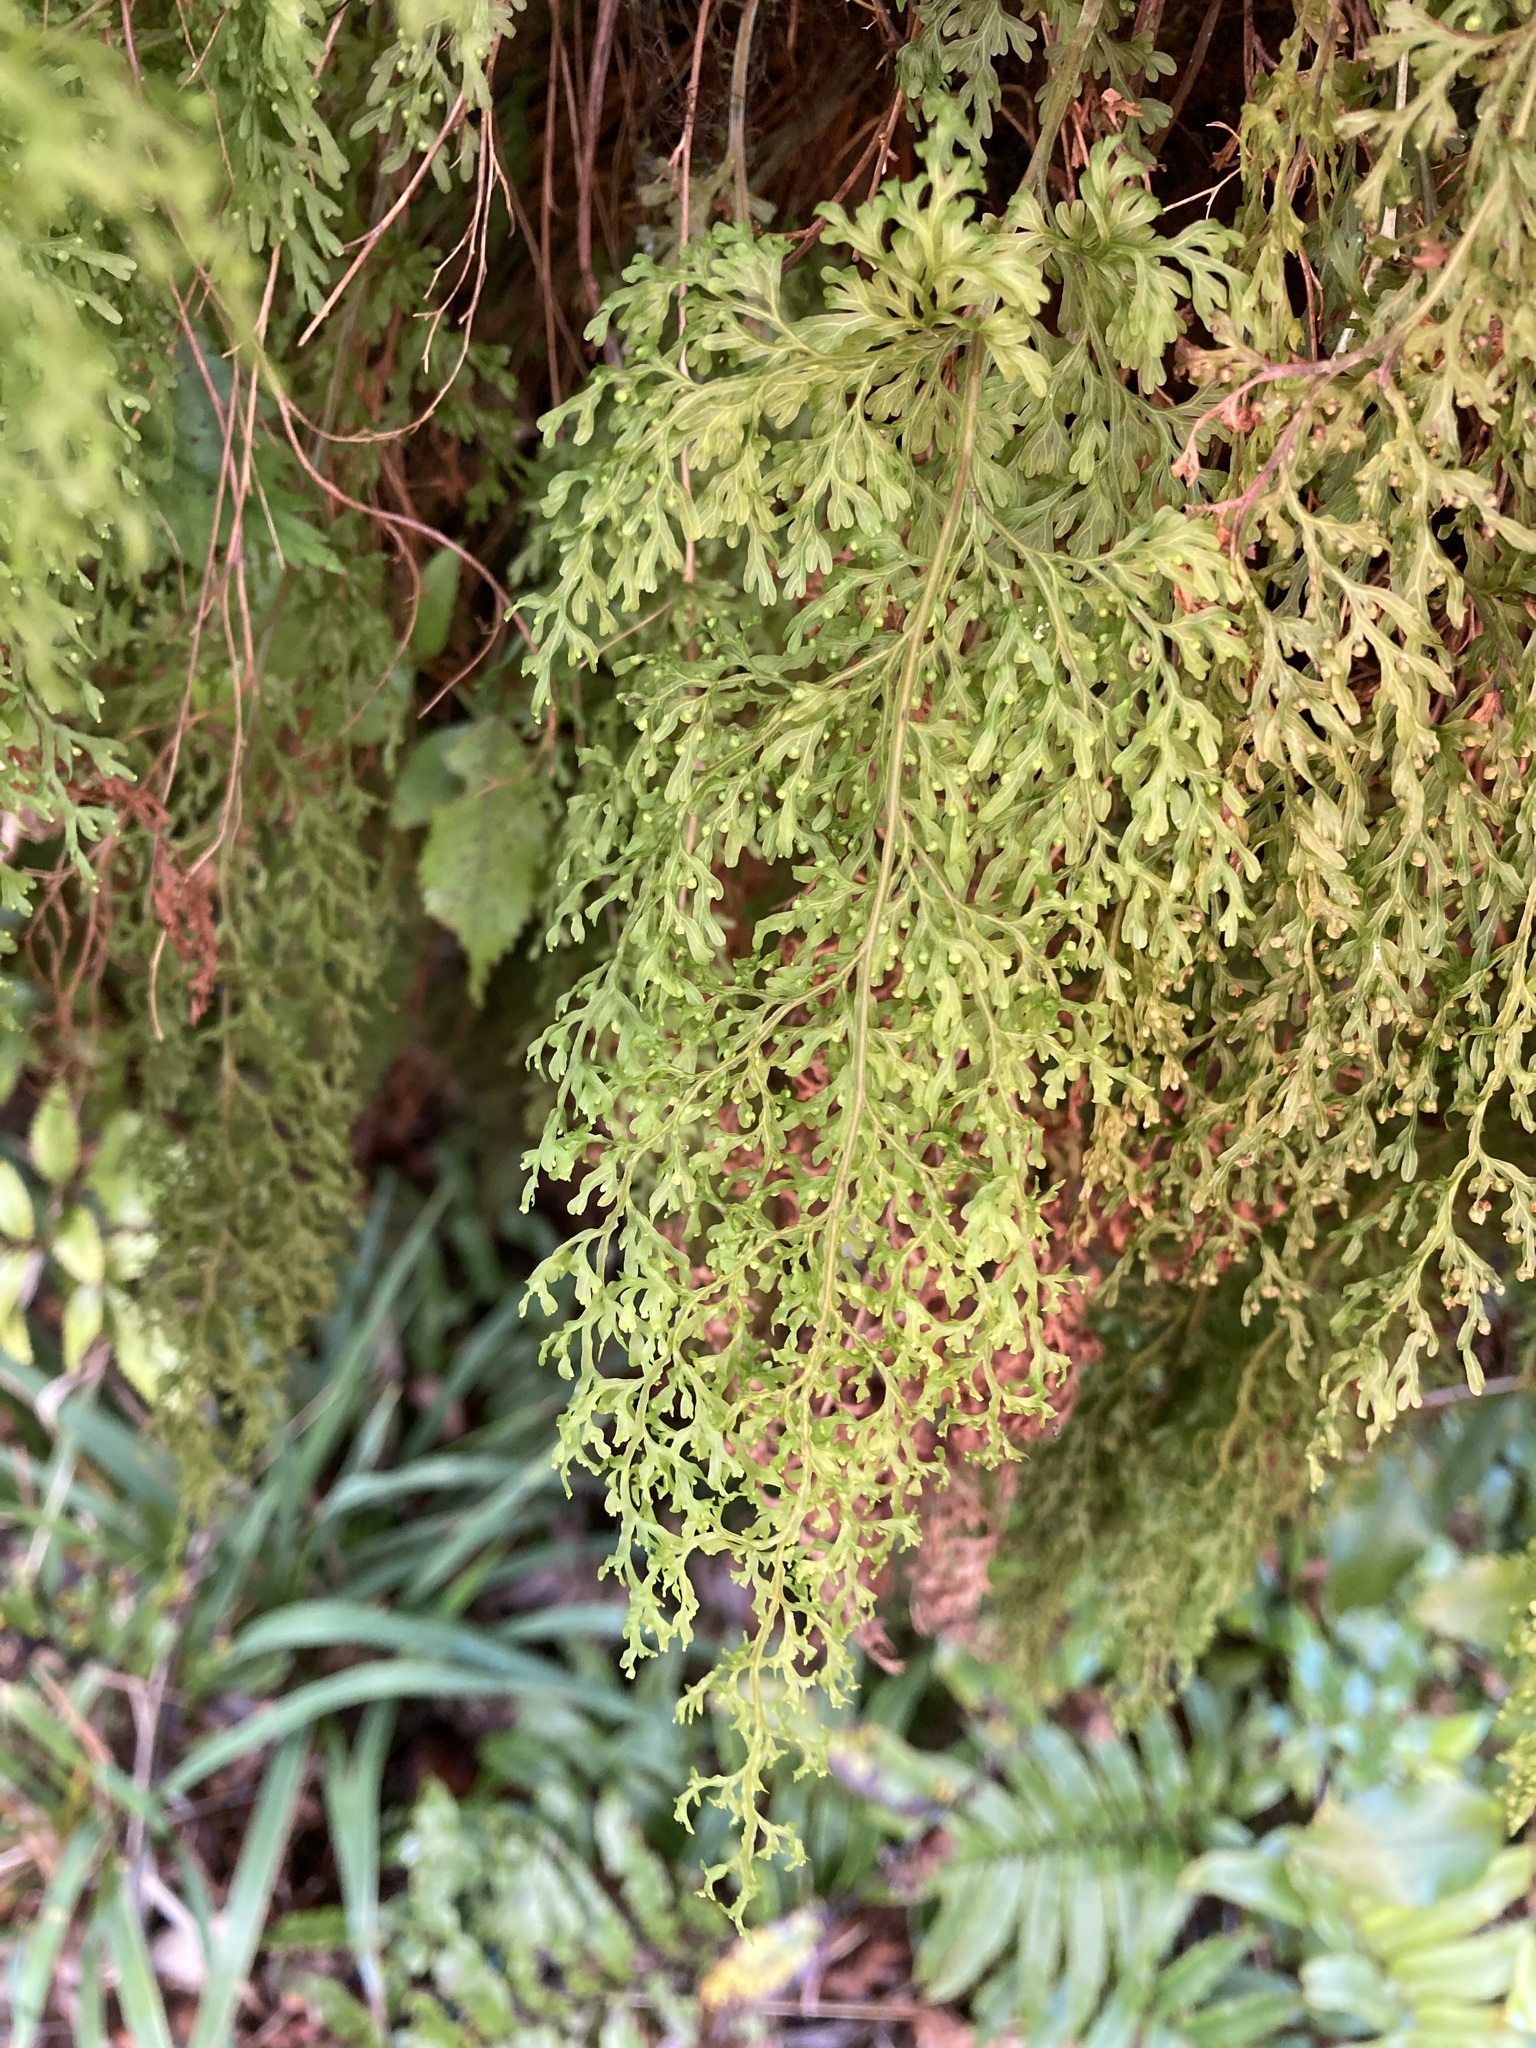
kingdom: Plantae
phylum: Tracheophyta
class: Polypodiopsida
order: Hymenophyllales
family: Hymenophyllaceae
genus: Hymenophyllum
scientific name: Hymenophyllum pulcherrimum
